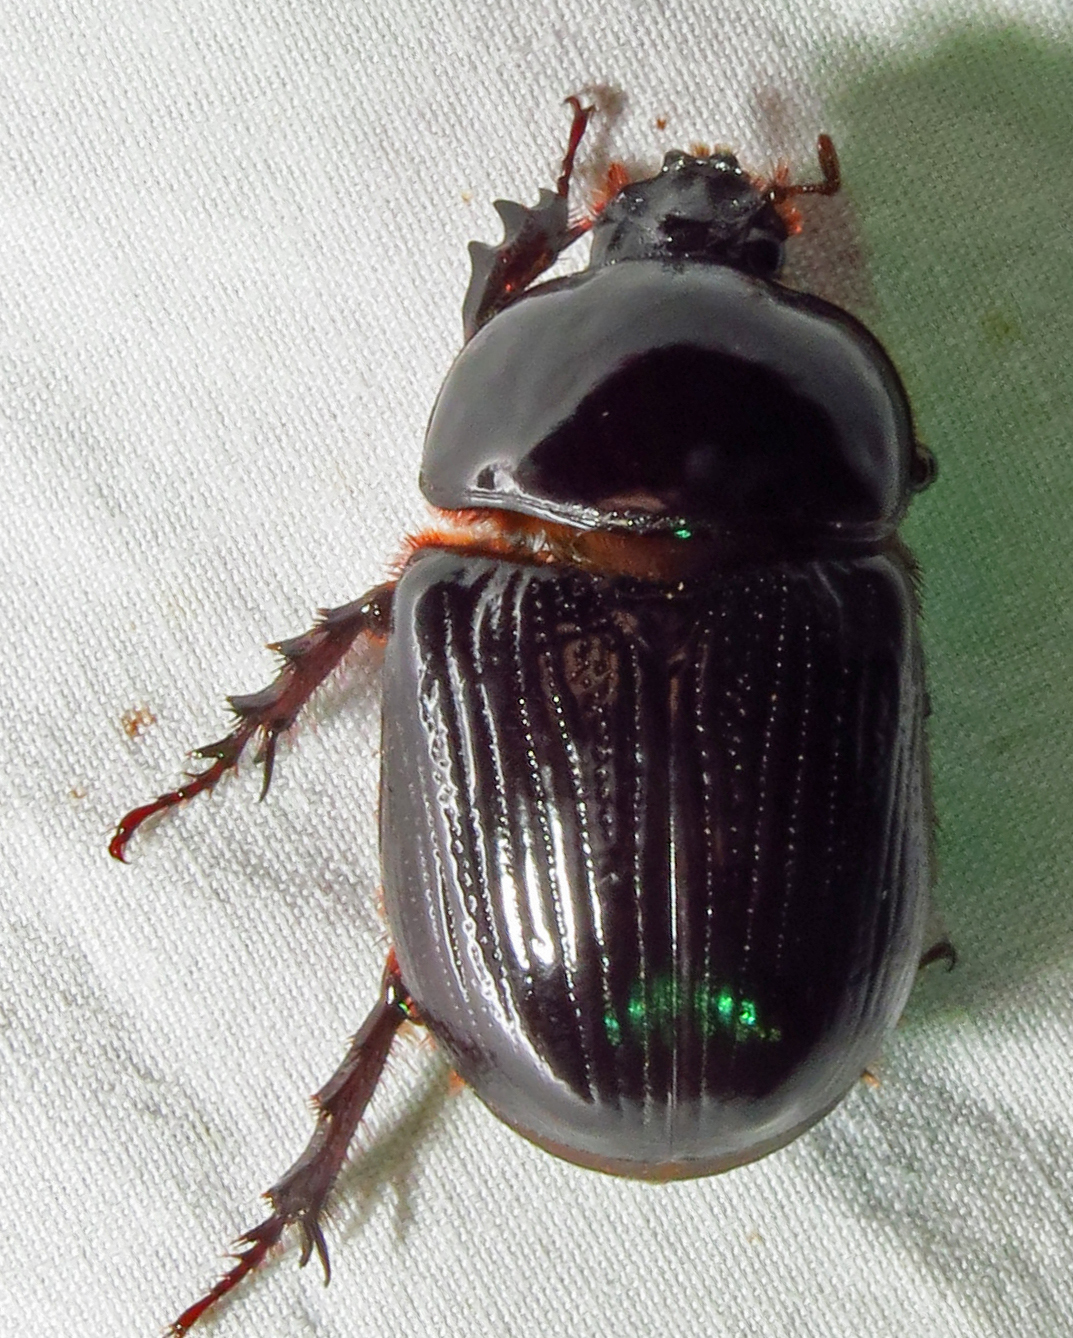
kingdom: Animalia
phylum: Arthropoda
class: Insecta
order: Coleoptera
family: Scarabaeidae
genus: Xyloryctes
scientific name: Xyloryctes jamaicensis
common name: Eastern rhinoceros beetle
